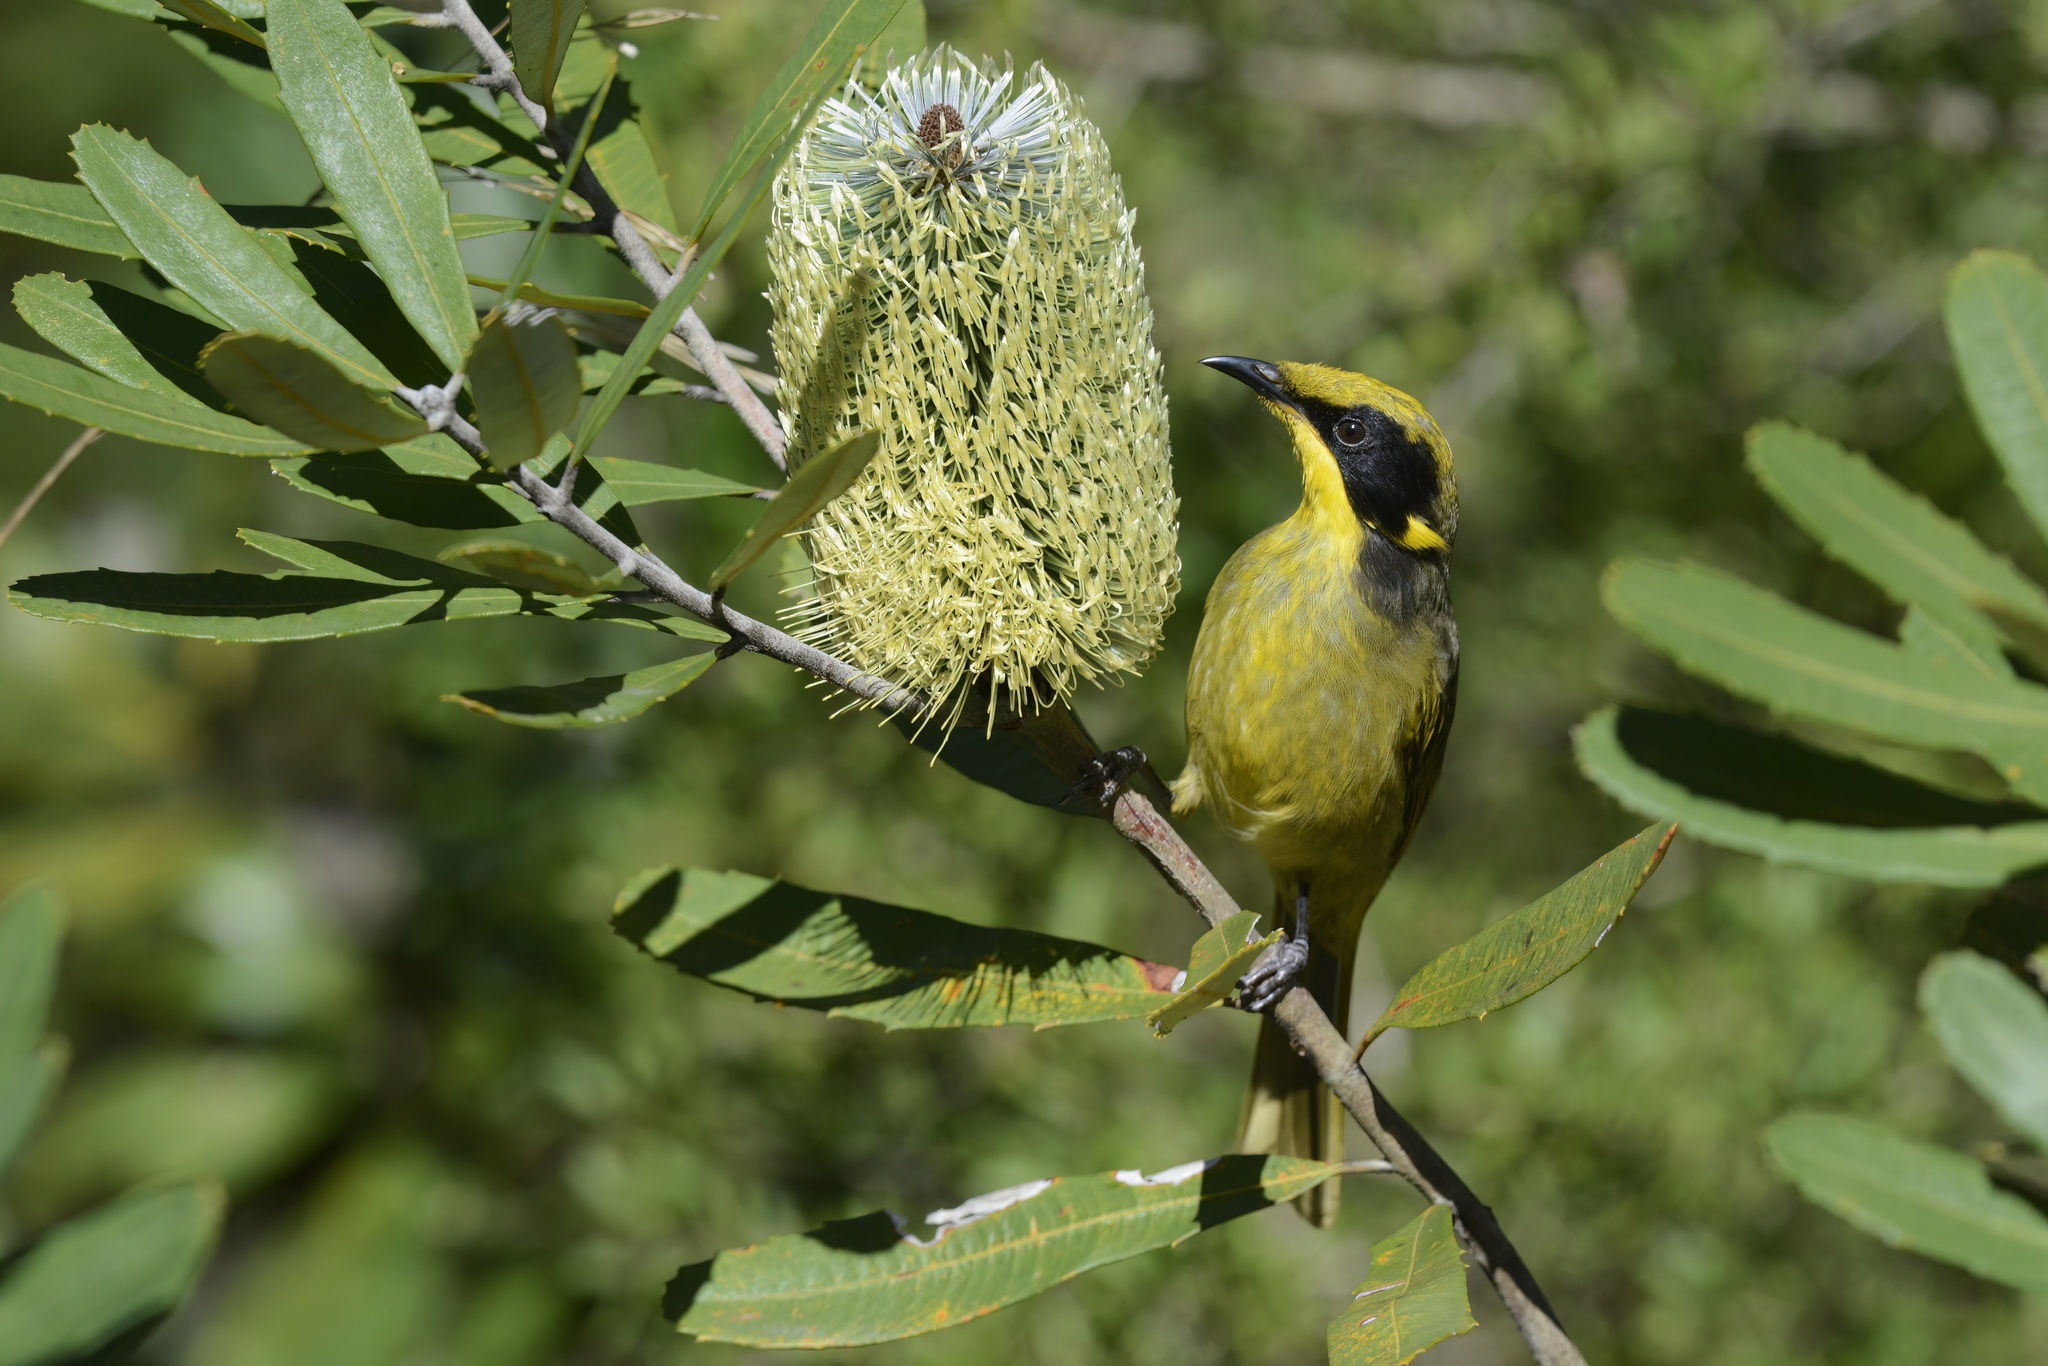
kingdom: Animalia
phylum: Chordata
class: Aves
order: Passeriformes
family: Meliphagidae
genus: Lichenostomus
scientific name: Lichenostomus melanops
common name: Yellow-tufted honeyeater
